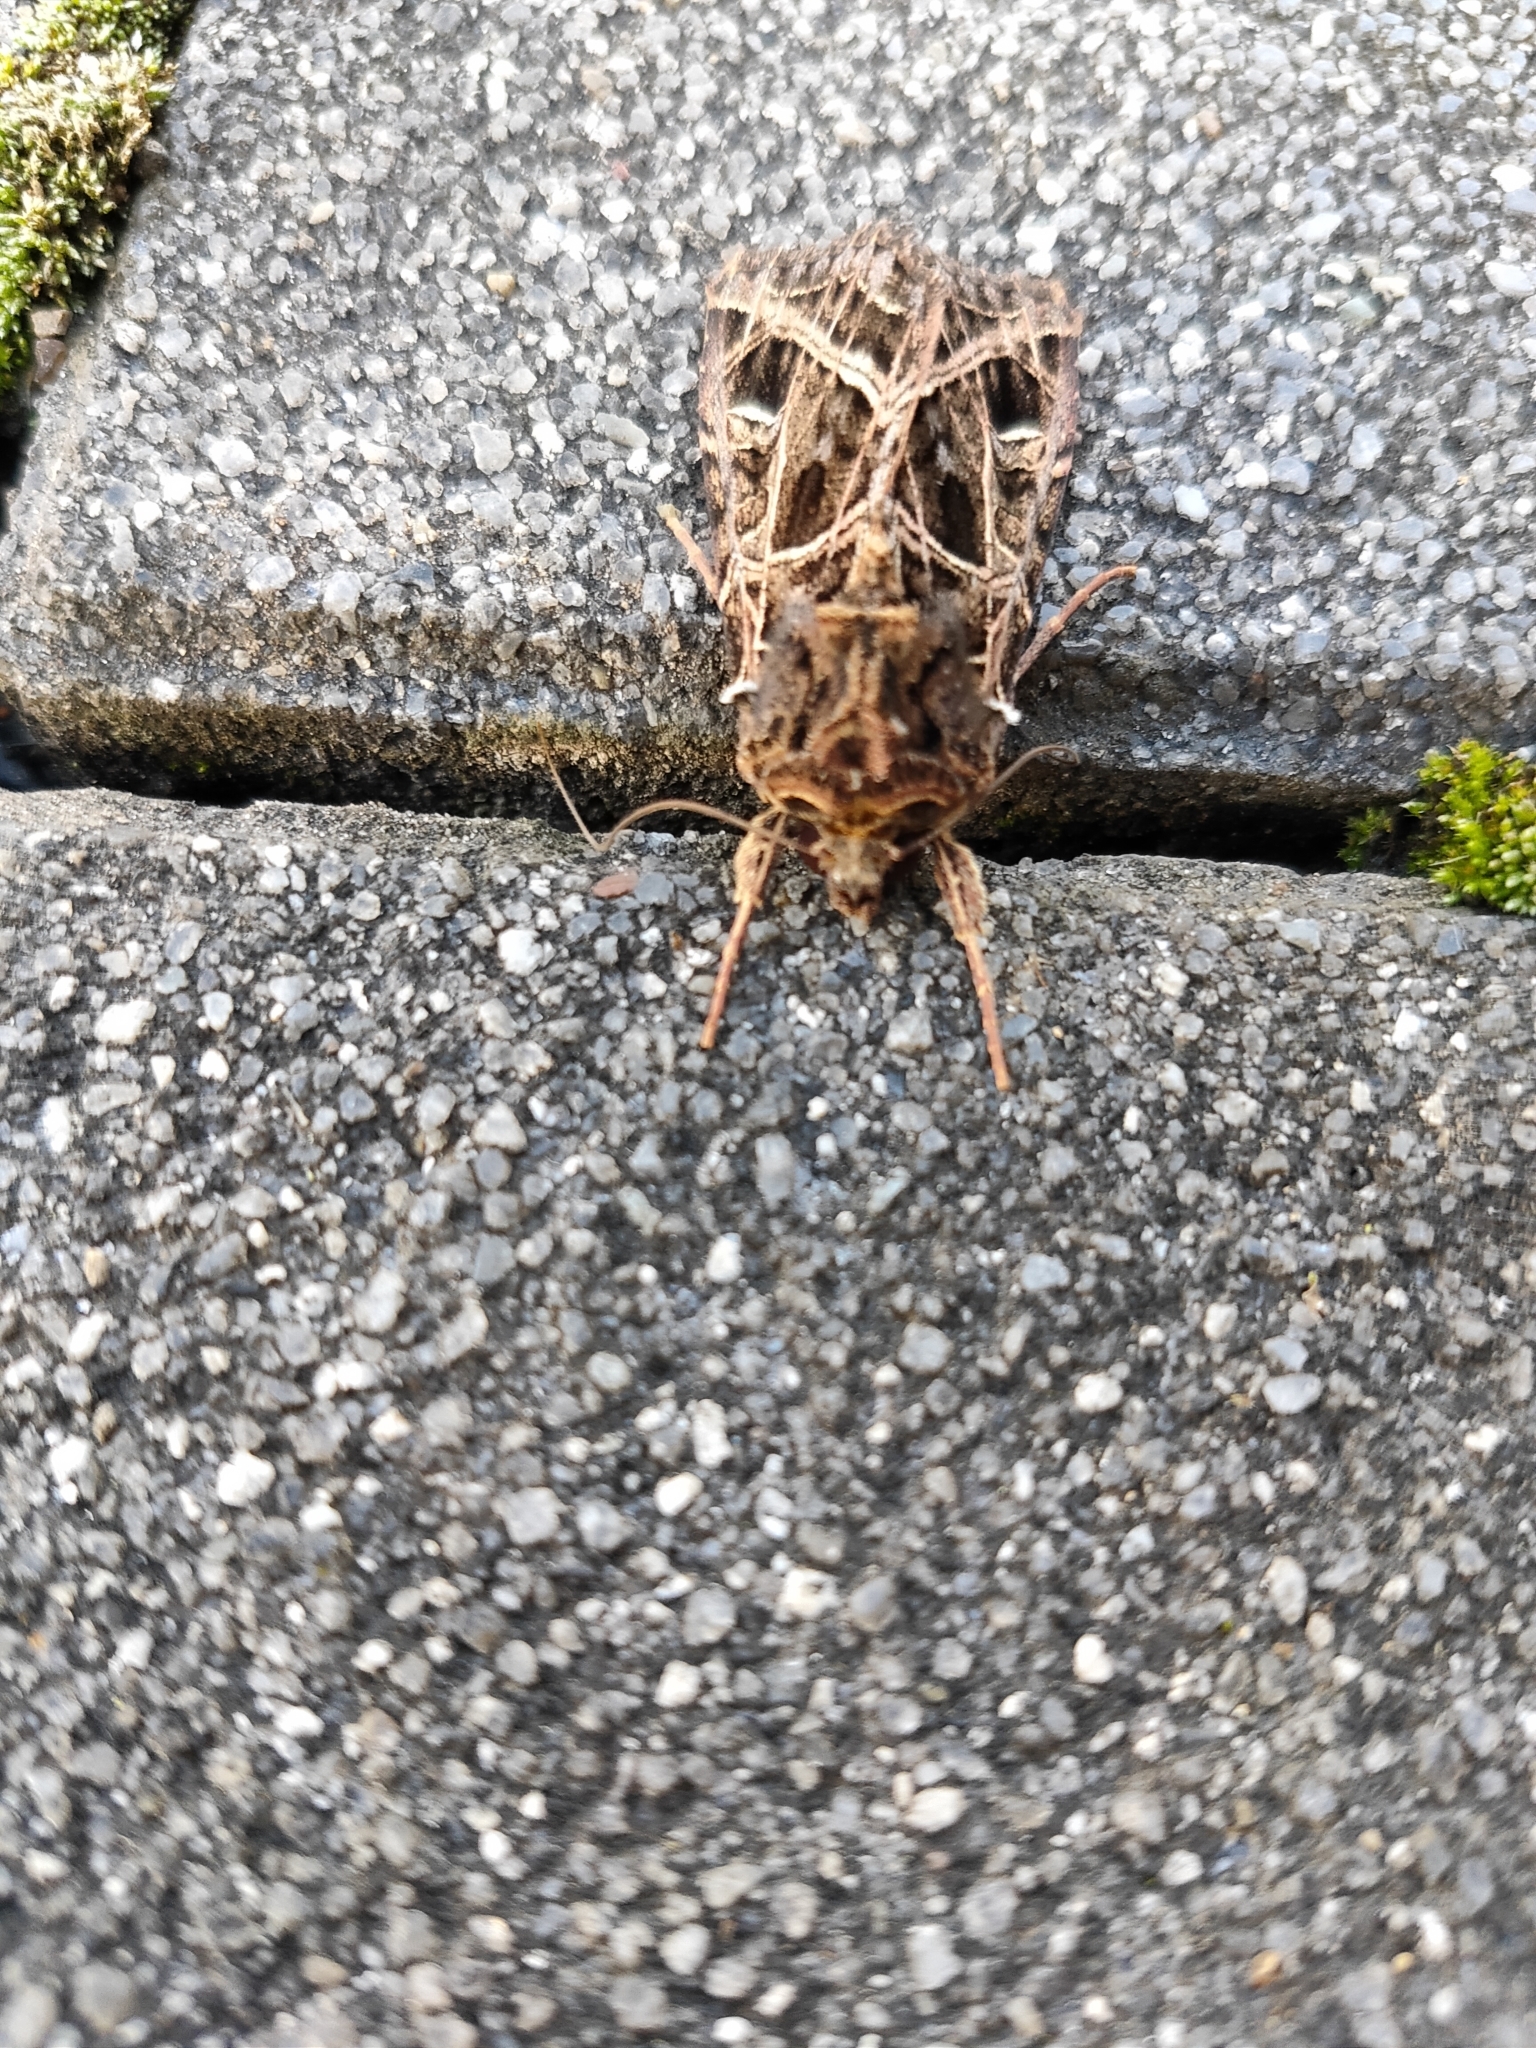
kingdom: Animalia
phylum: Arthropoda
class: Insecta
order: Lepidoptera
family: Noctuidae
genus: Dictyestra
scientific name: Dictyestra dissectus
